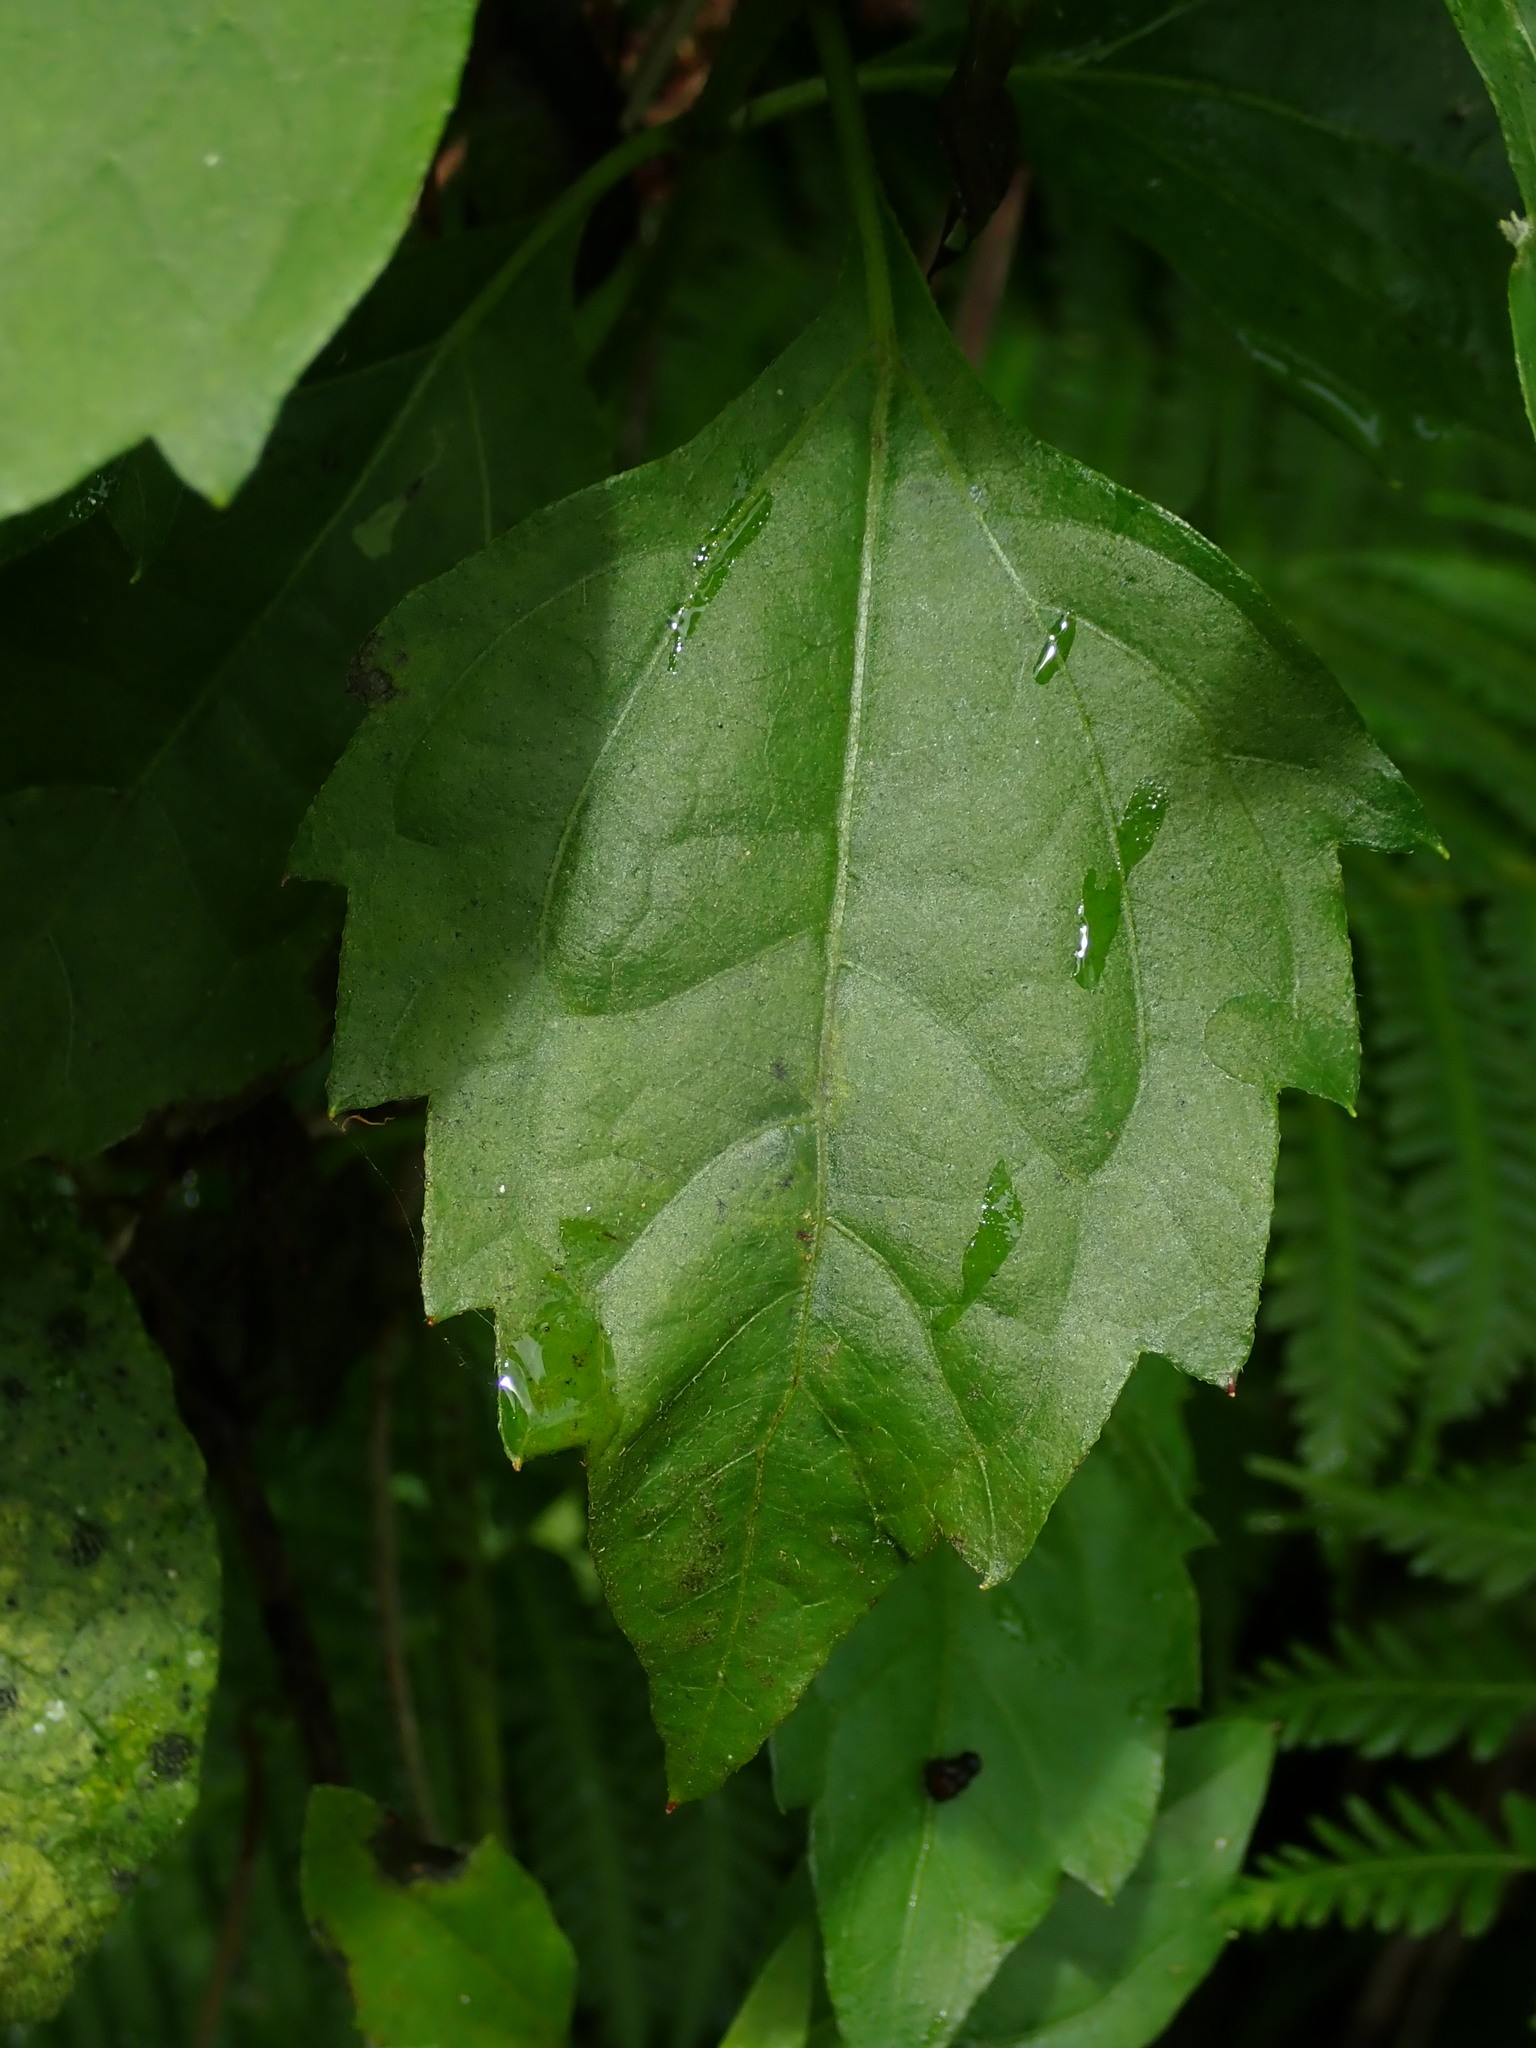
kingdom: Plantae
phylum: Tracheophyta
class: Magnoliopsida
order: Asterales
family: Asteraceae
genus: Chromolaena
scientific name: Chromolaena odorata
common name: Siamweed
